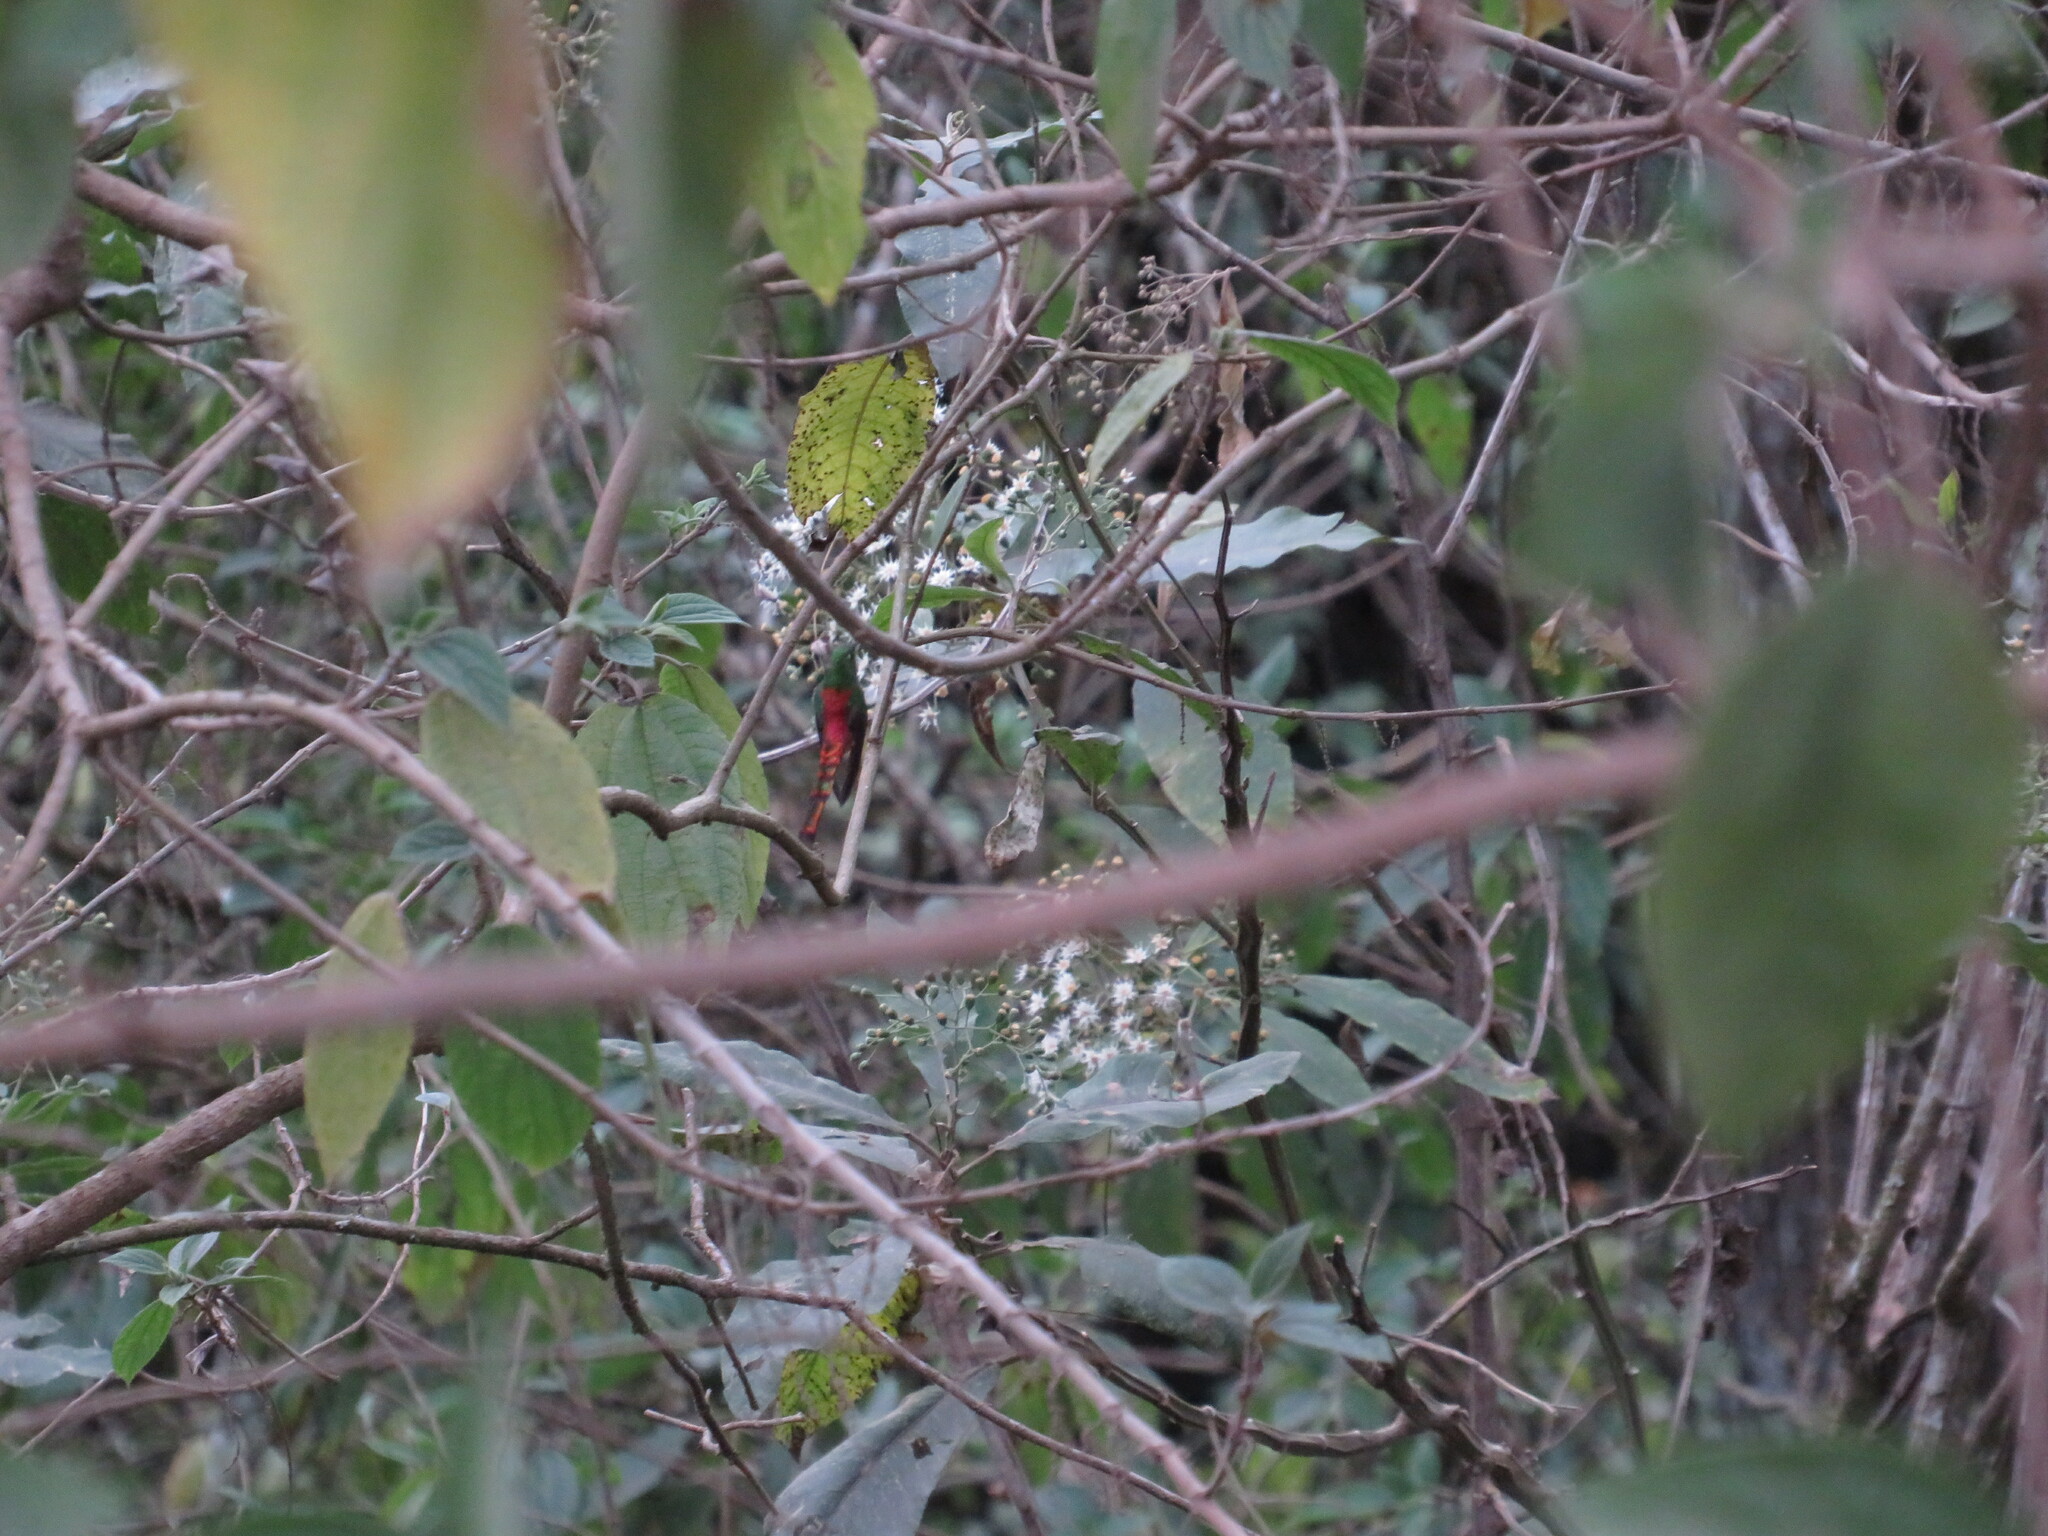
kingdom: Animalia
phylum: Chordata
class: Aves
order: Apodiformes
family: Trochilidae
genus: Sappho
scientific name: Sappho sparganurus
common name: Red-tailed comet
